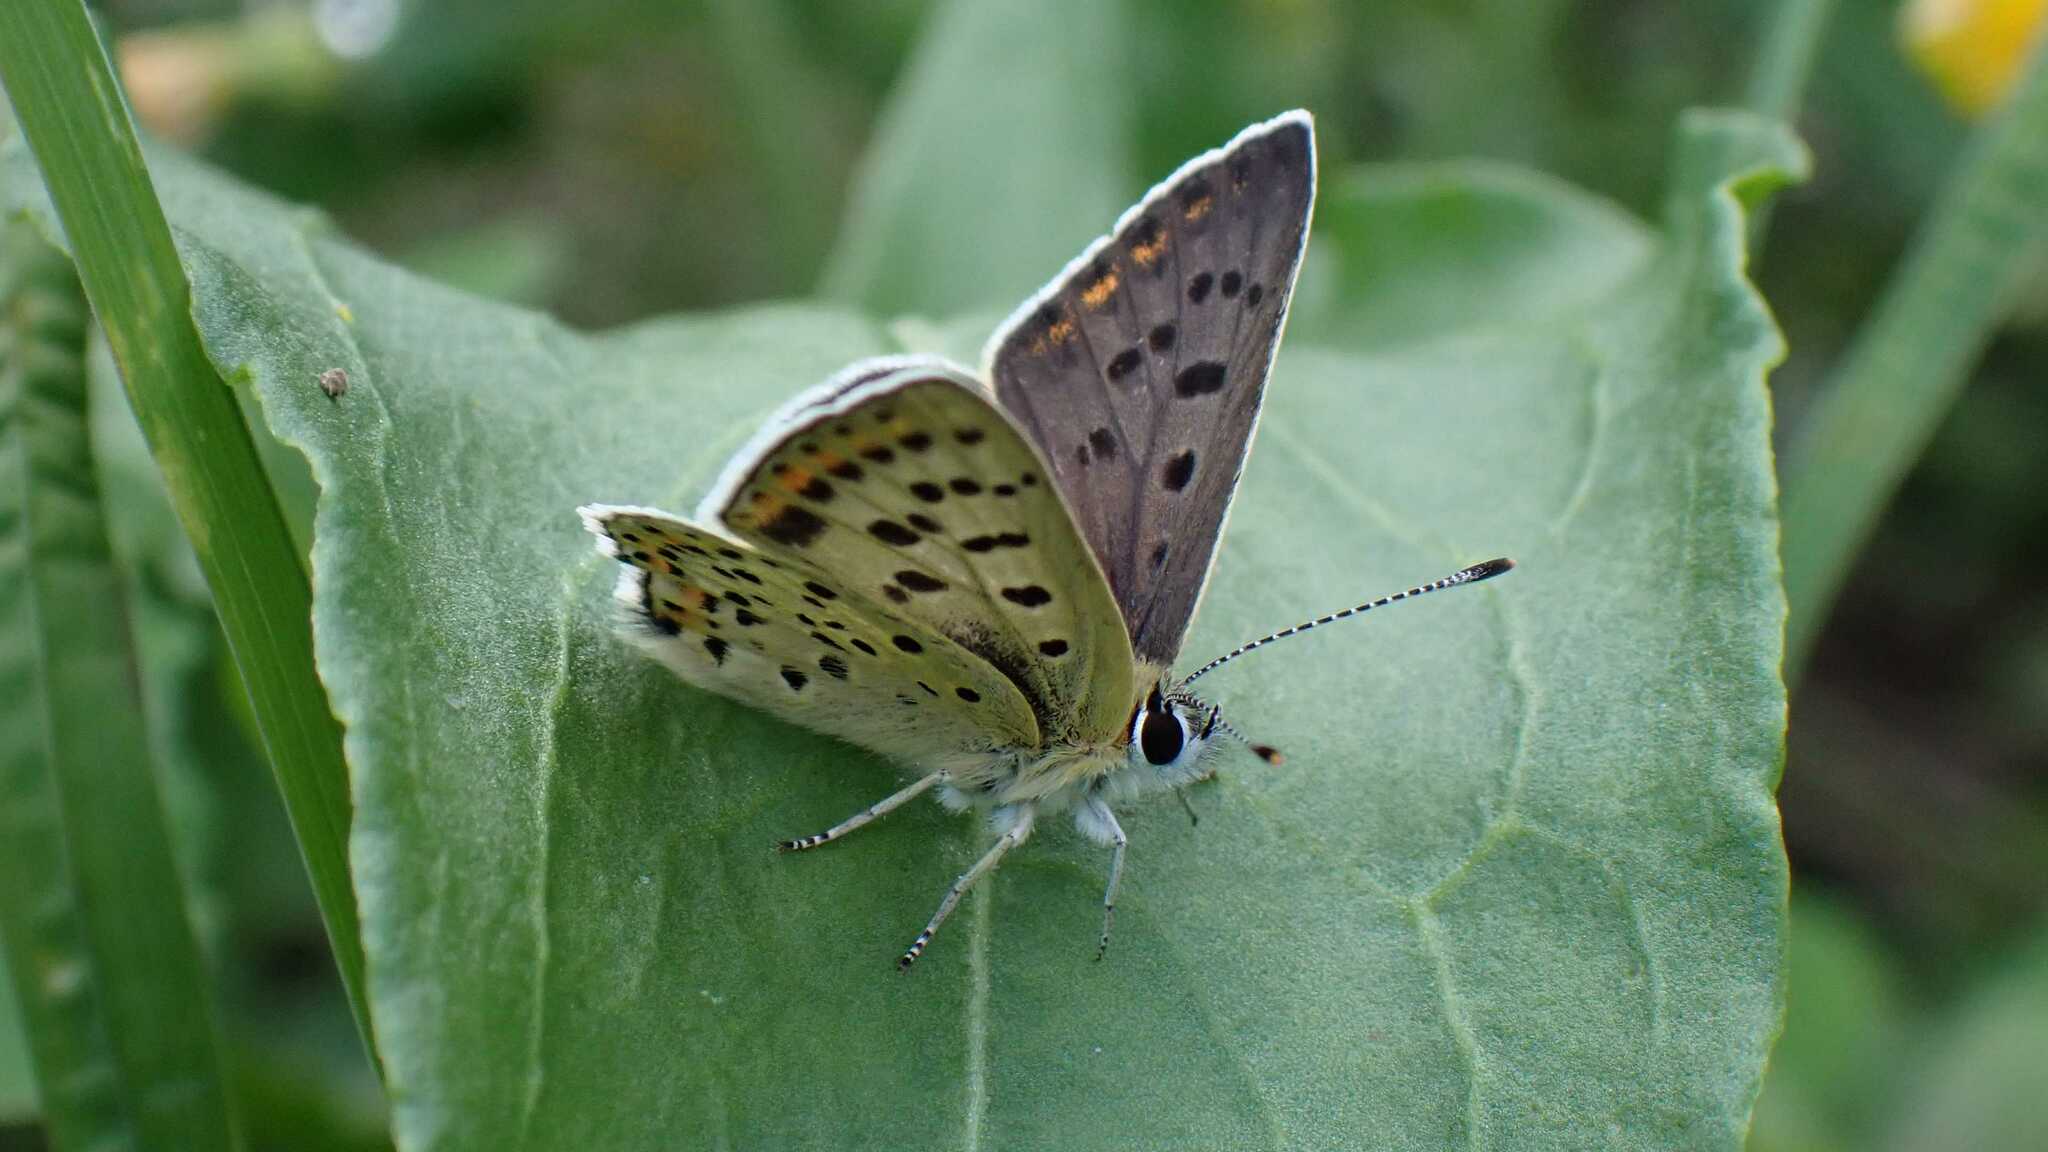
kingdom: Animalia
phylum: Arthropoda
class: Insecta
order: Lepidoptera
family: Lycaenidae
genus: Loweia
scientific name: Loweia tityrus
